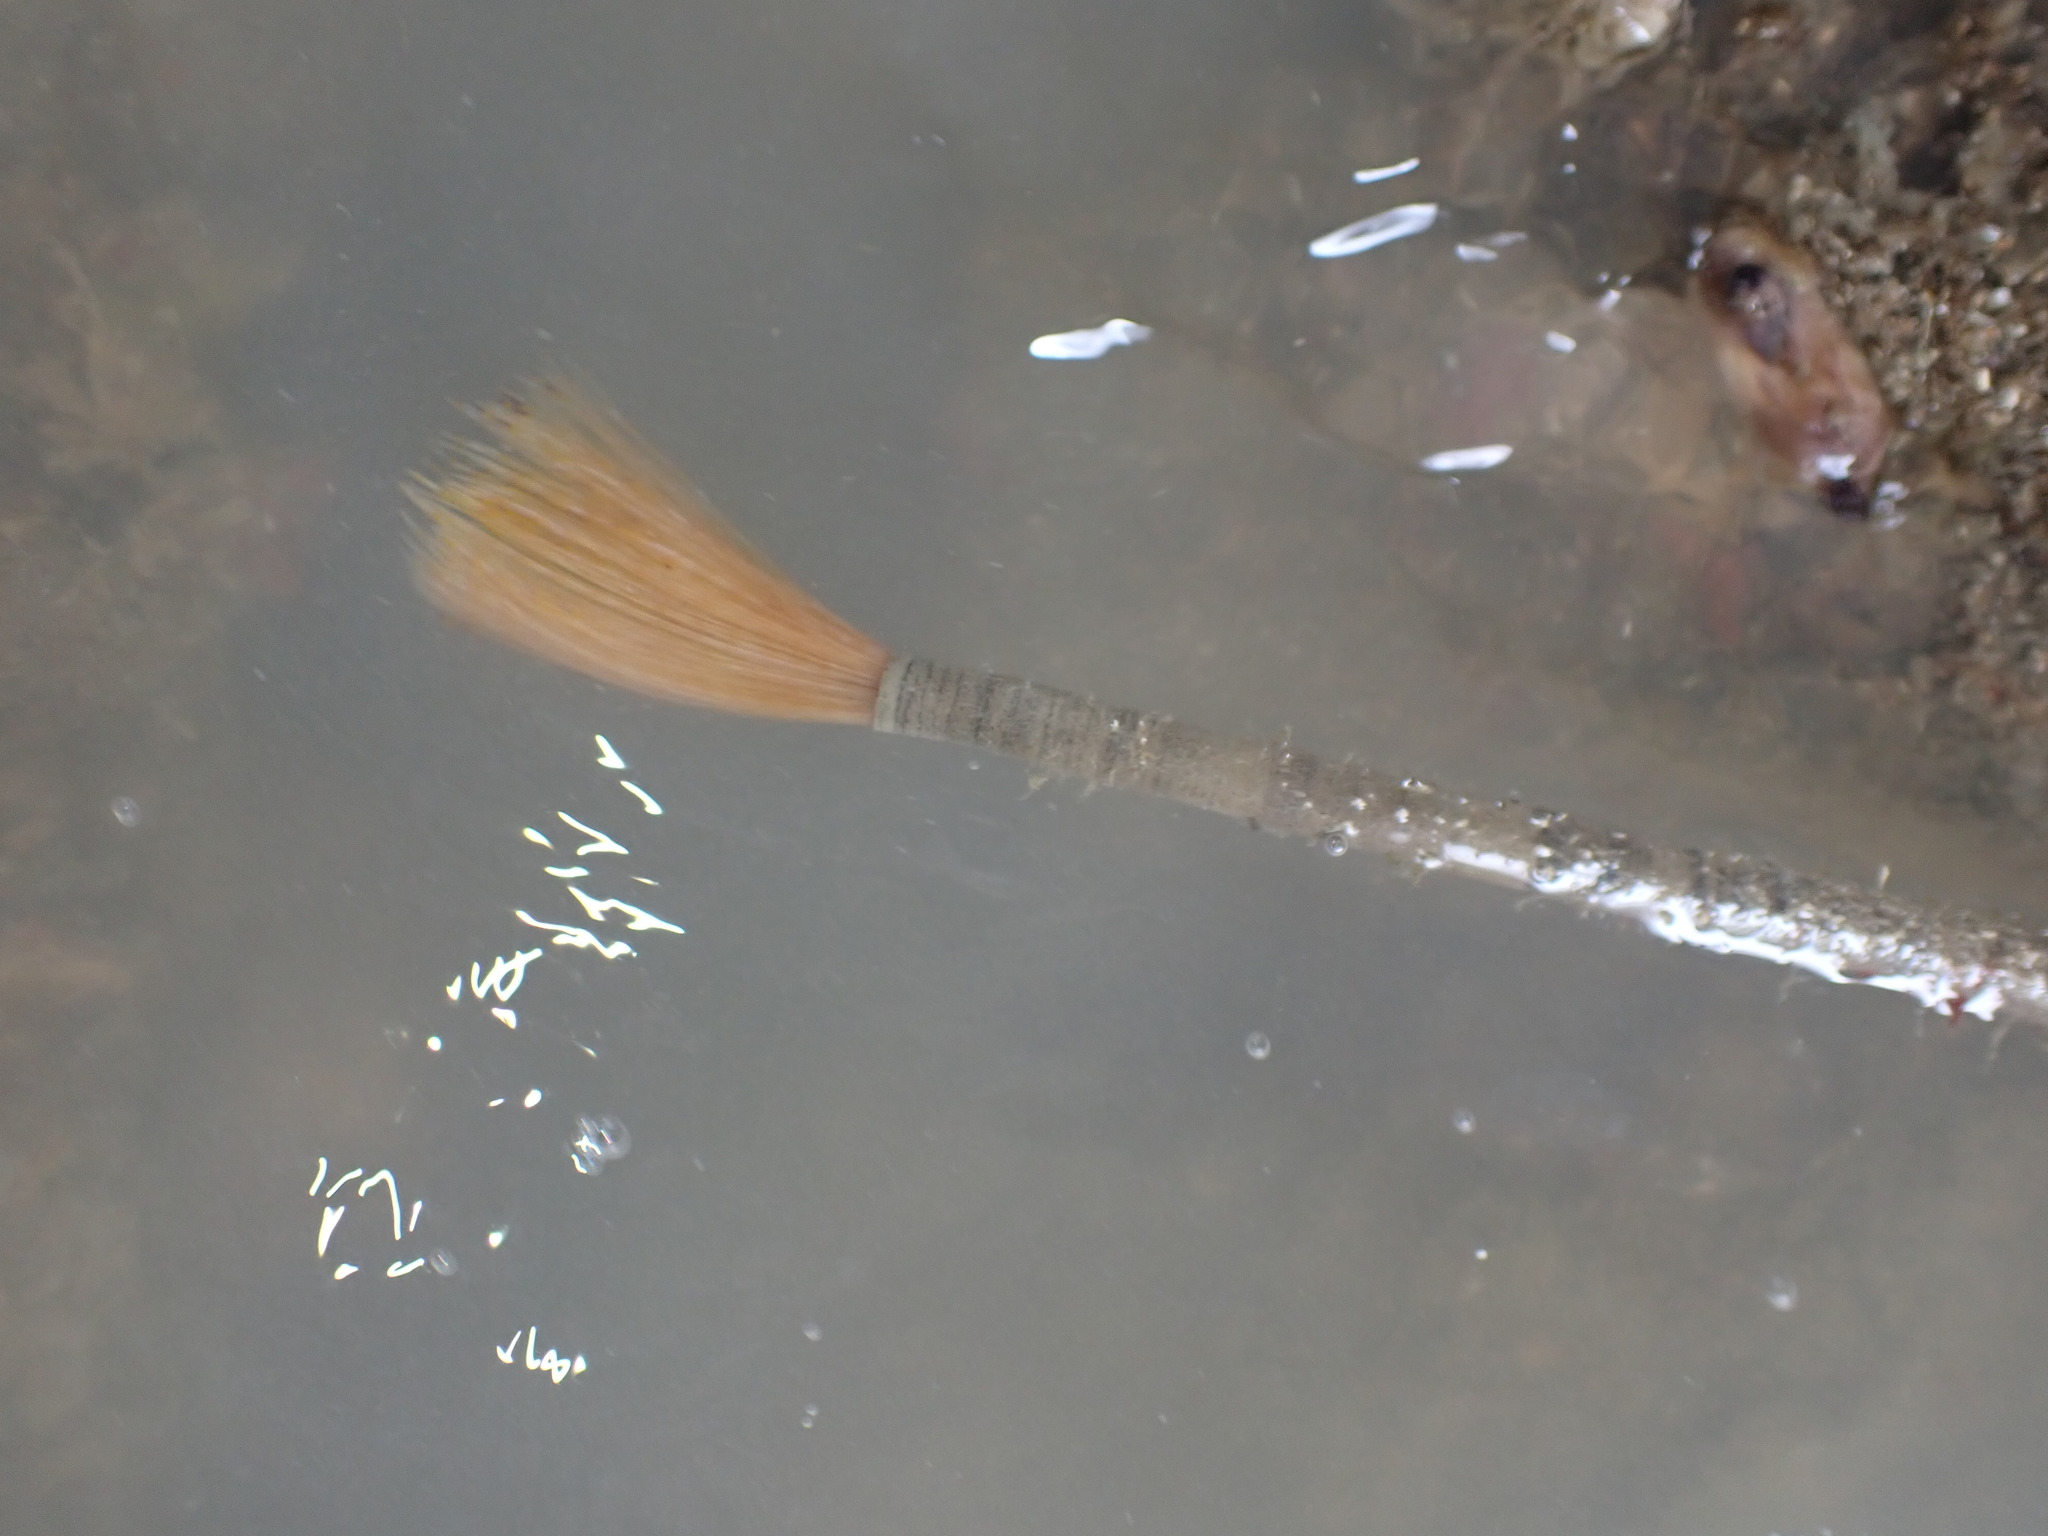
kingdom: Animalia
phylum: Annelida
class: Polychaeta
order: Sabellida
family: Sabellidae
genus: Sabella
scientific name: Sabella spallanzanii
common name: Feather duster worm
